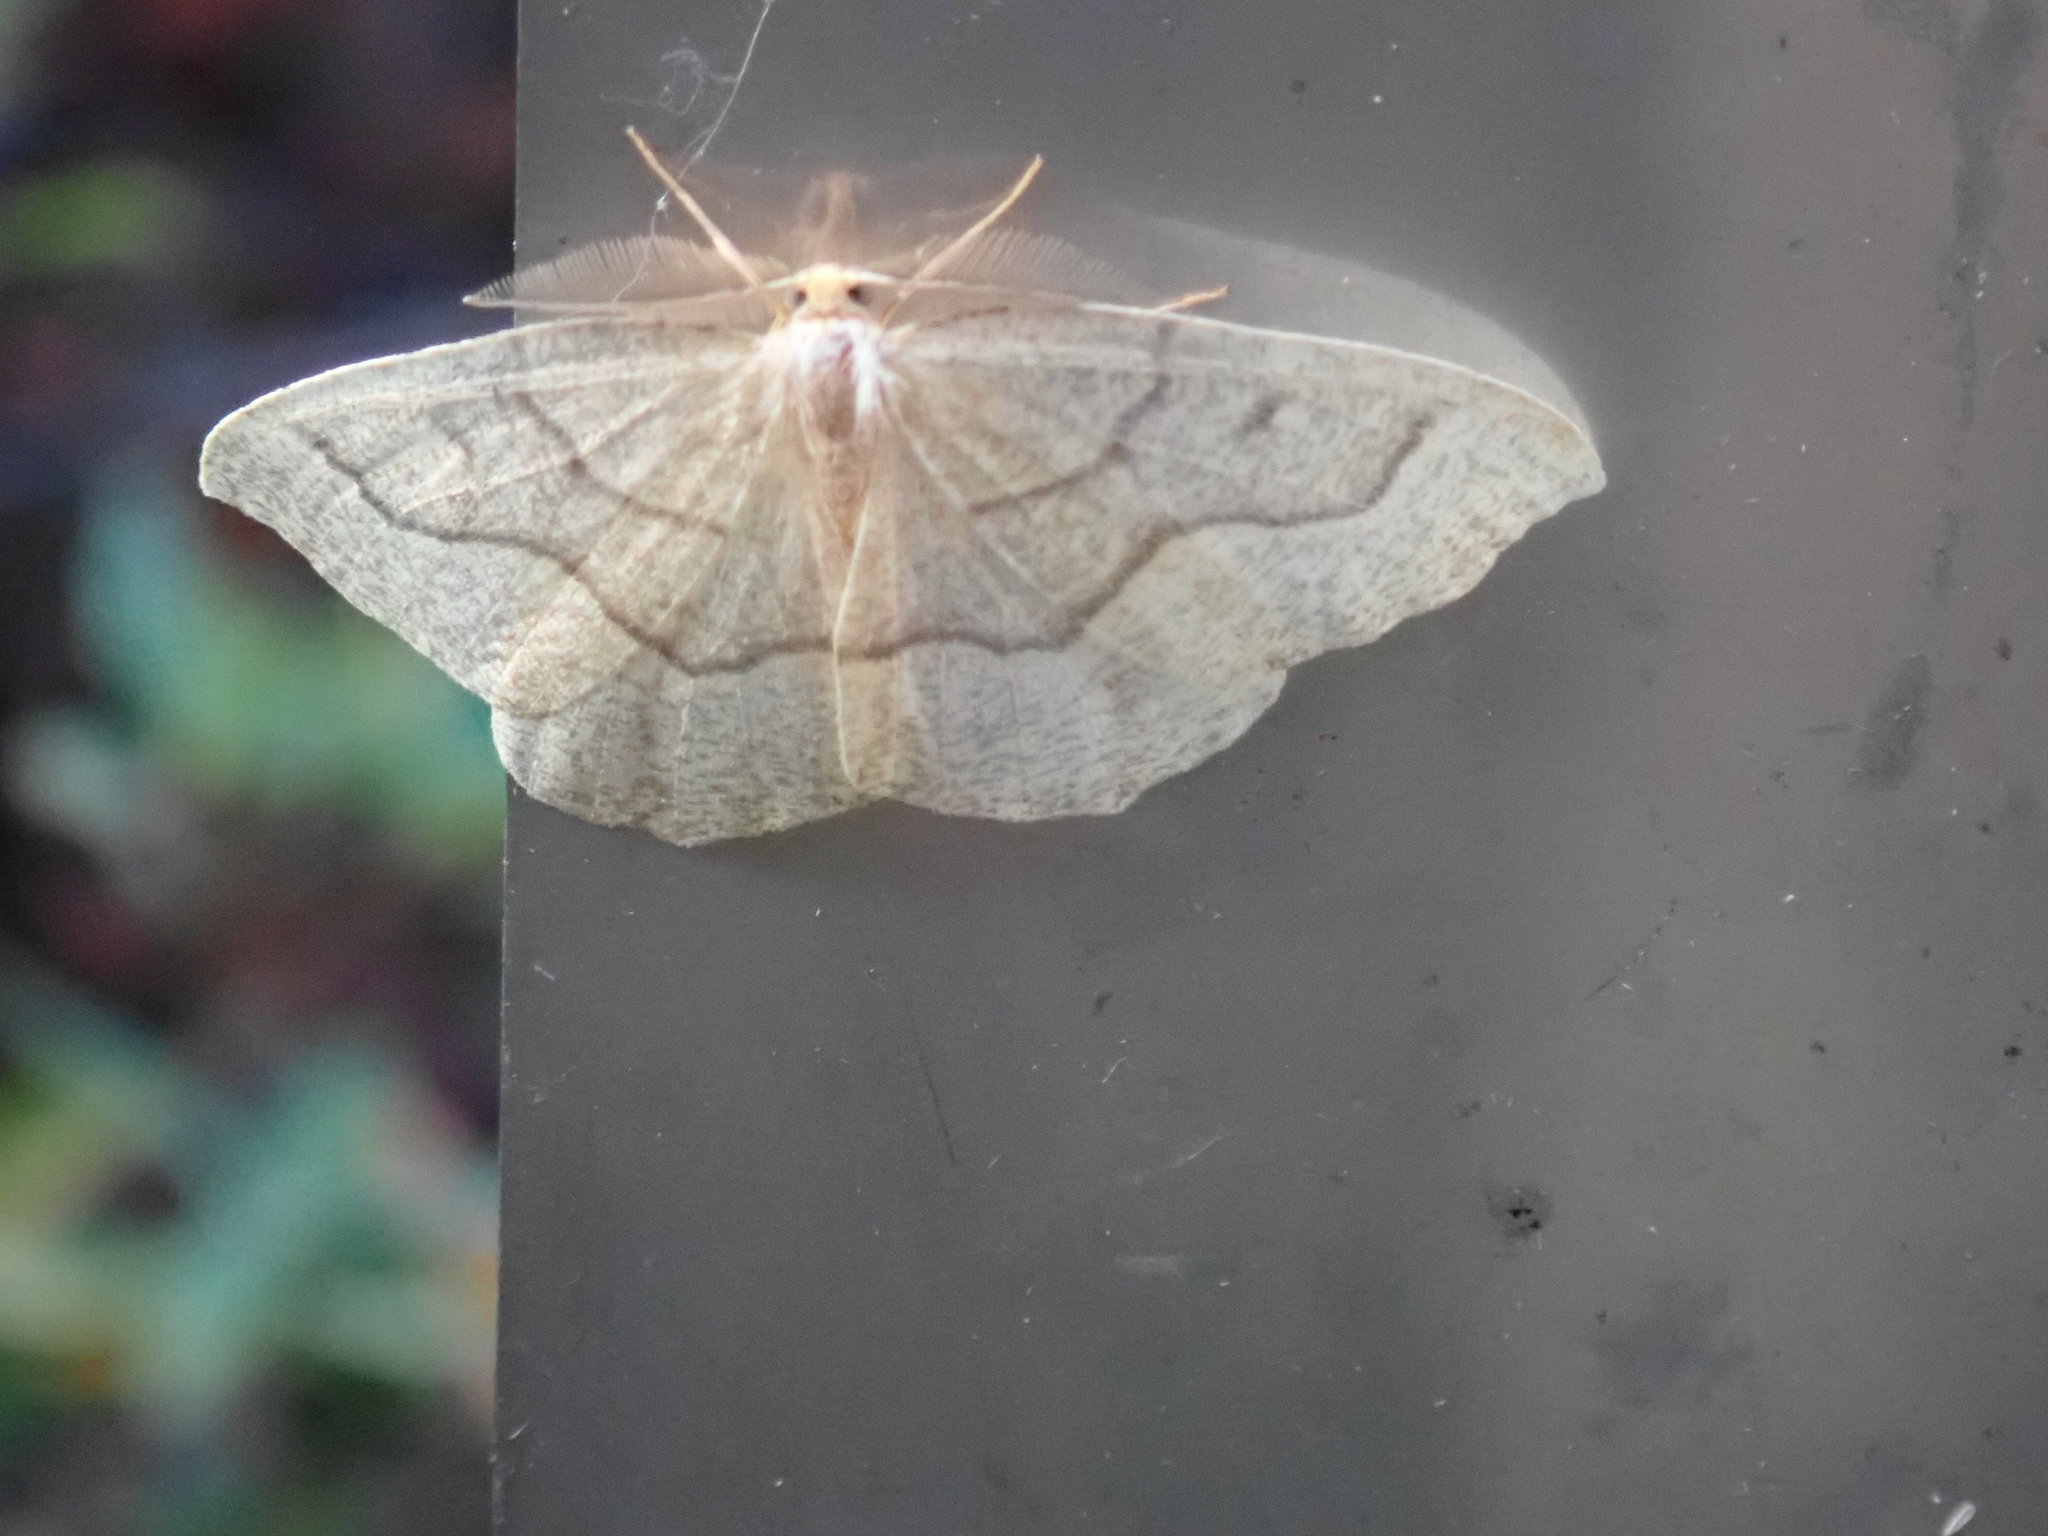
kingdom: Animalia
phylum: Arthropoda
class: Insecta
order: Lepidoptera
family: Geometridae
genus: Lambdina
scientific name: Lambdina fiscellaria
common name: Hemlock looper
